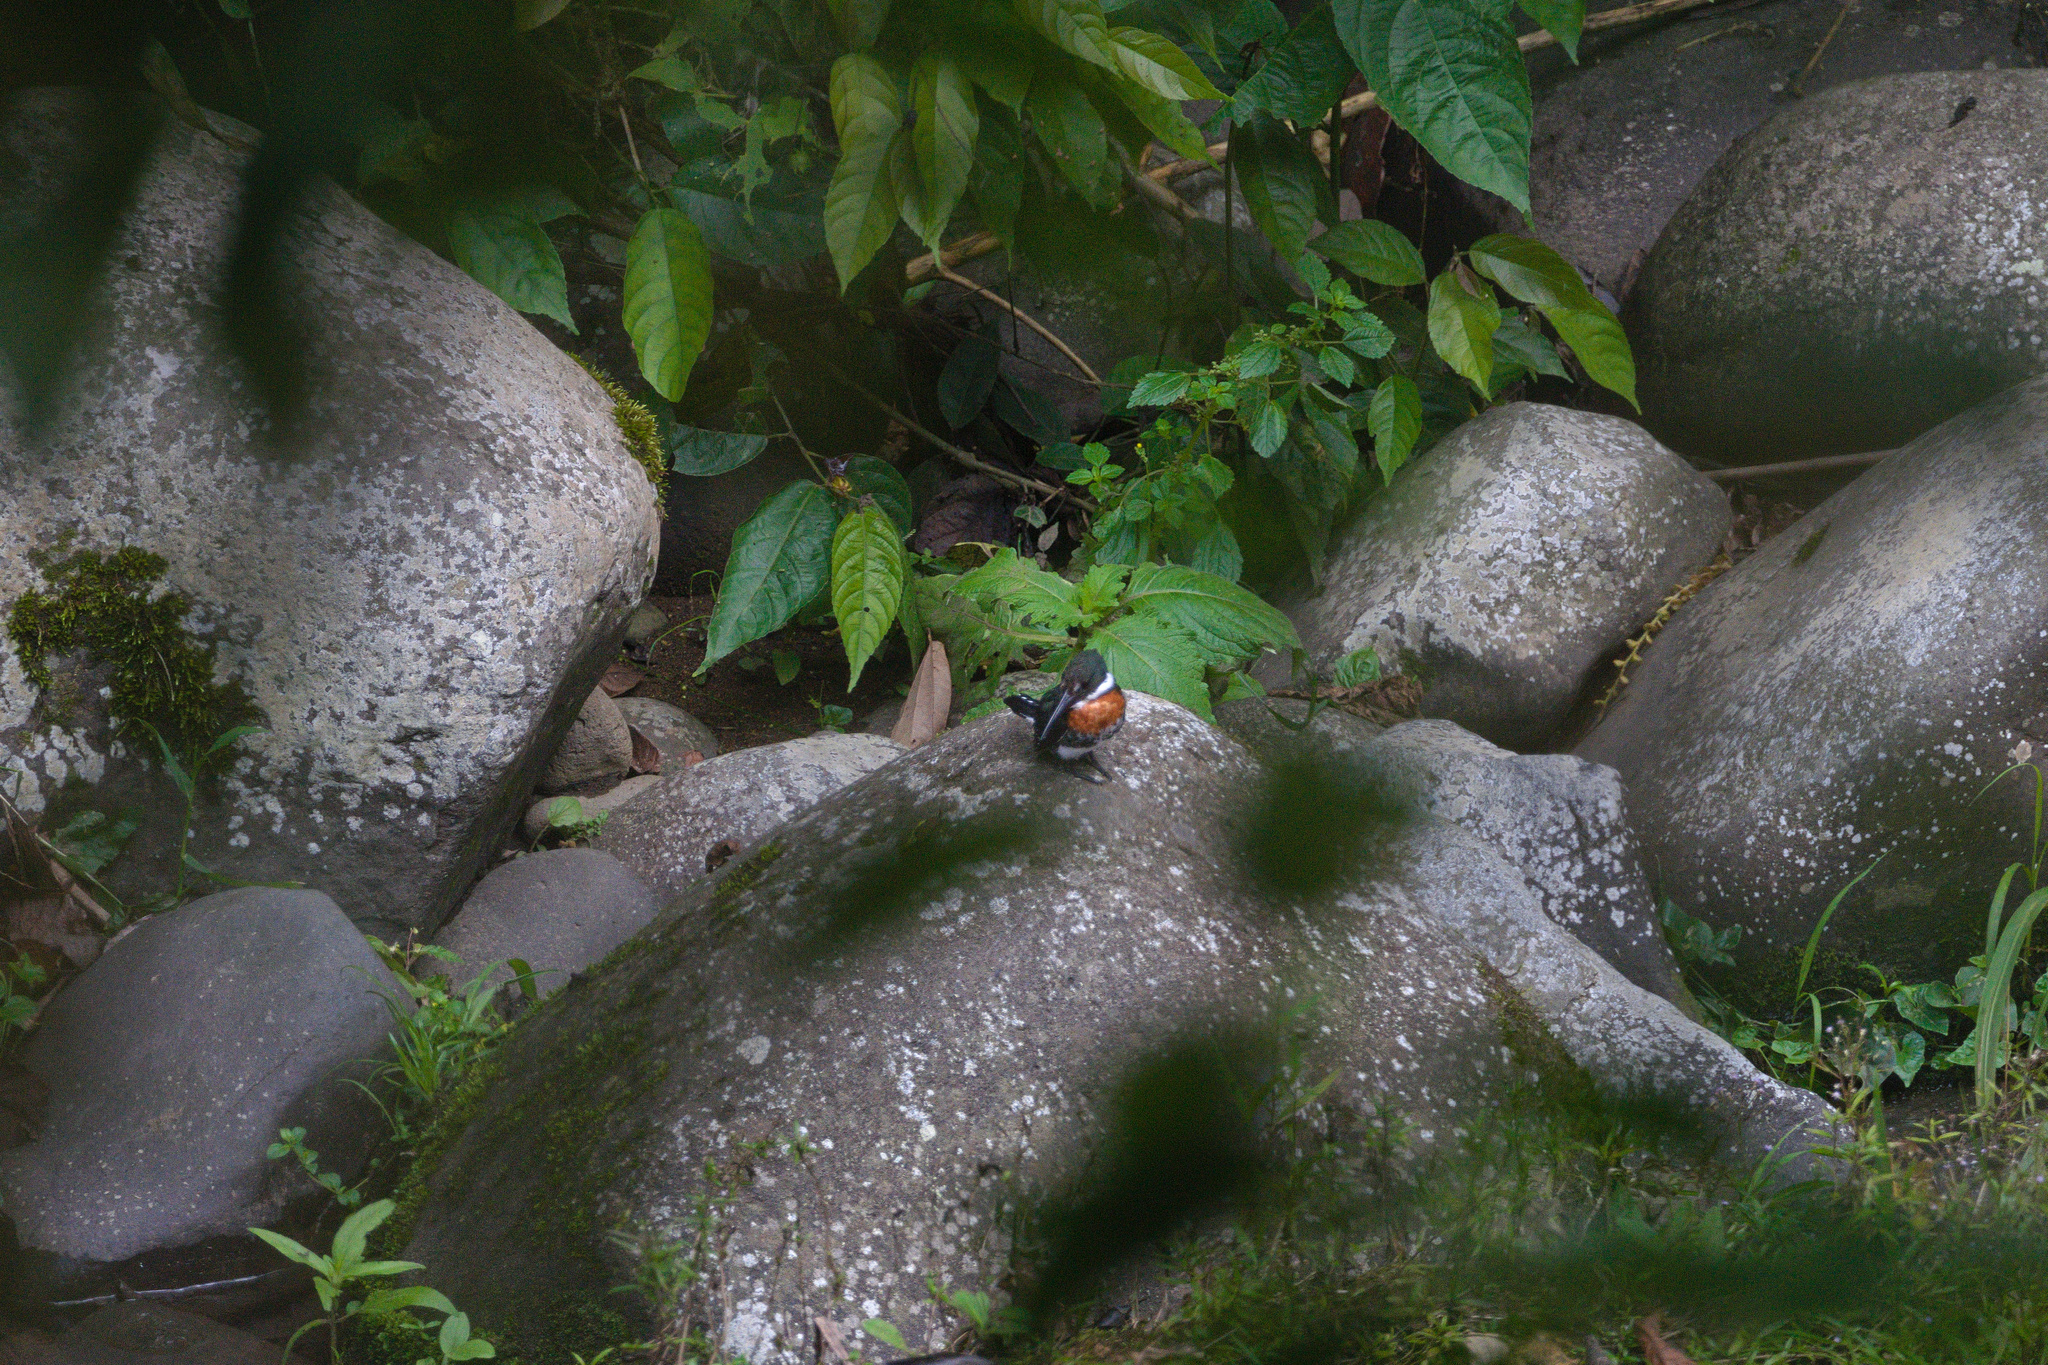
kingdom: Animalia
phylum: Chordata
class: Aves
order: Coraciiformes
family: Alcedinidae
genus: Chloroceryle
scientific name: Chloroceryle americana
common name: Green kingfisher
